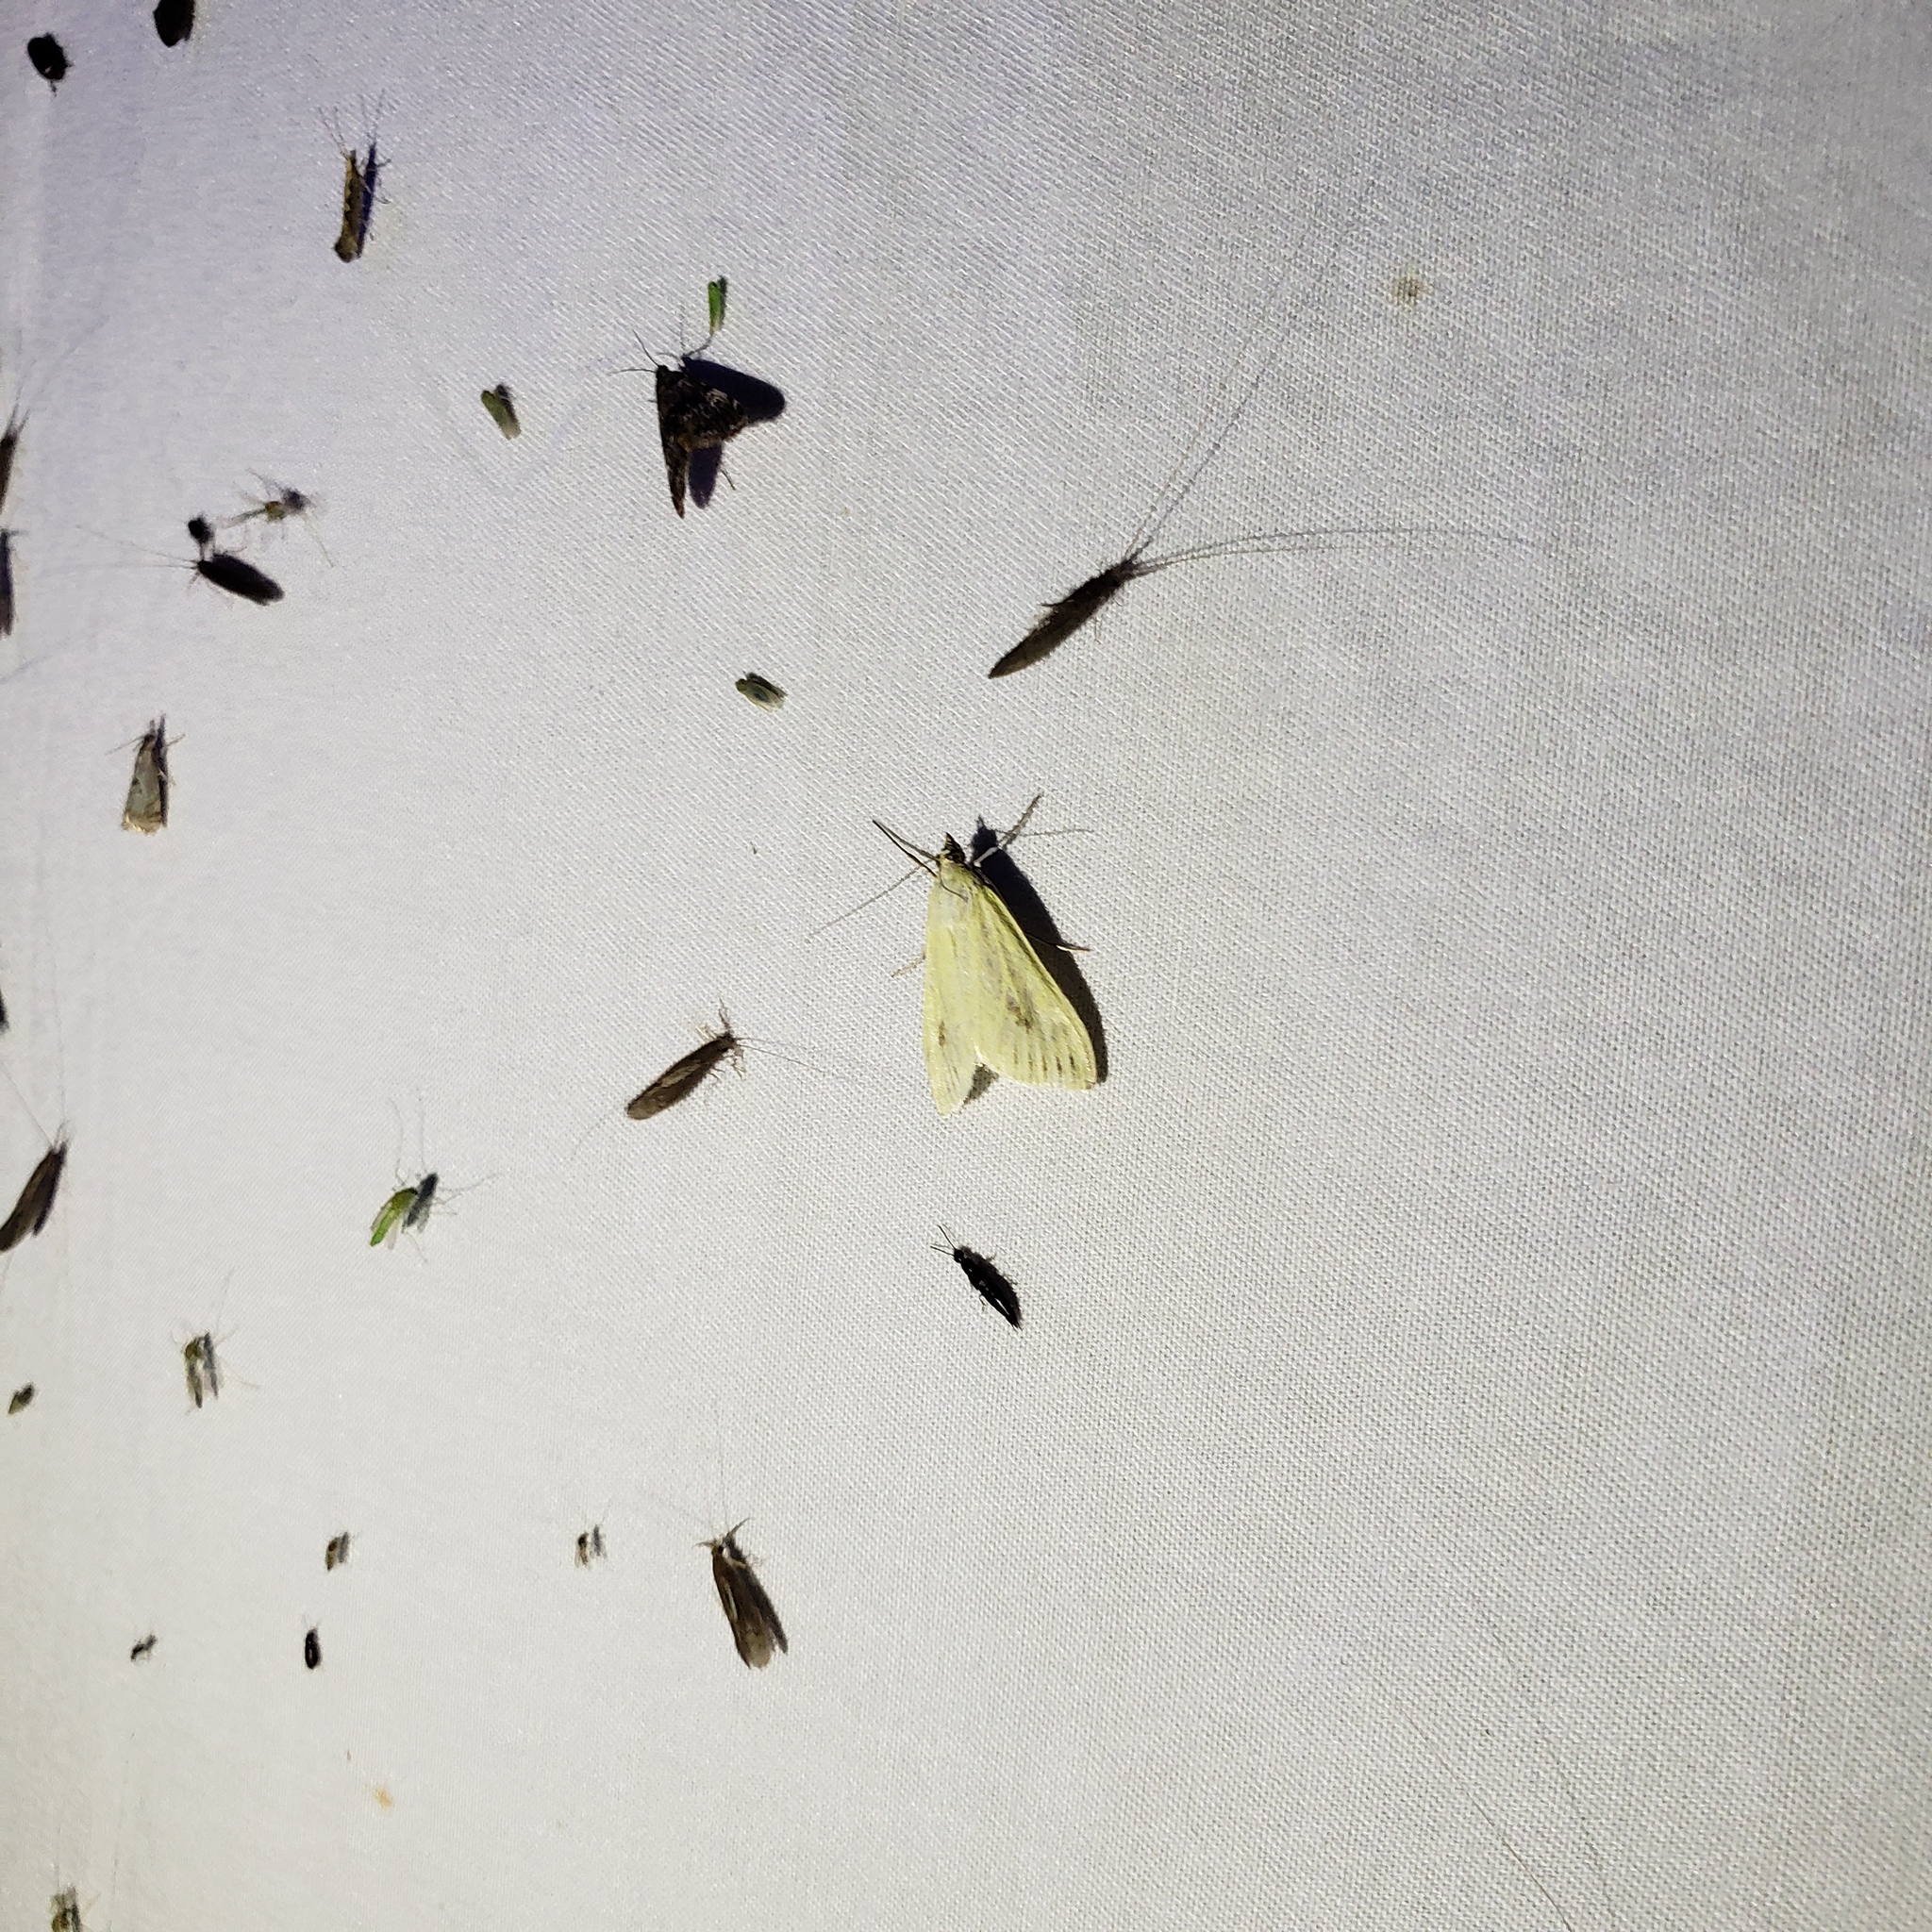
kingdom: Animalia
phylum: Arthropoda
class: Insecta
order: Lepidoptera
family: Crambidae
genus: Sitochroa
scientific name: Sitochroa palealis
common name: Greenish-yellow sitochroa moth
